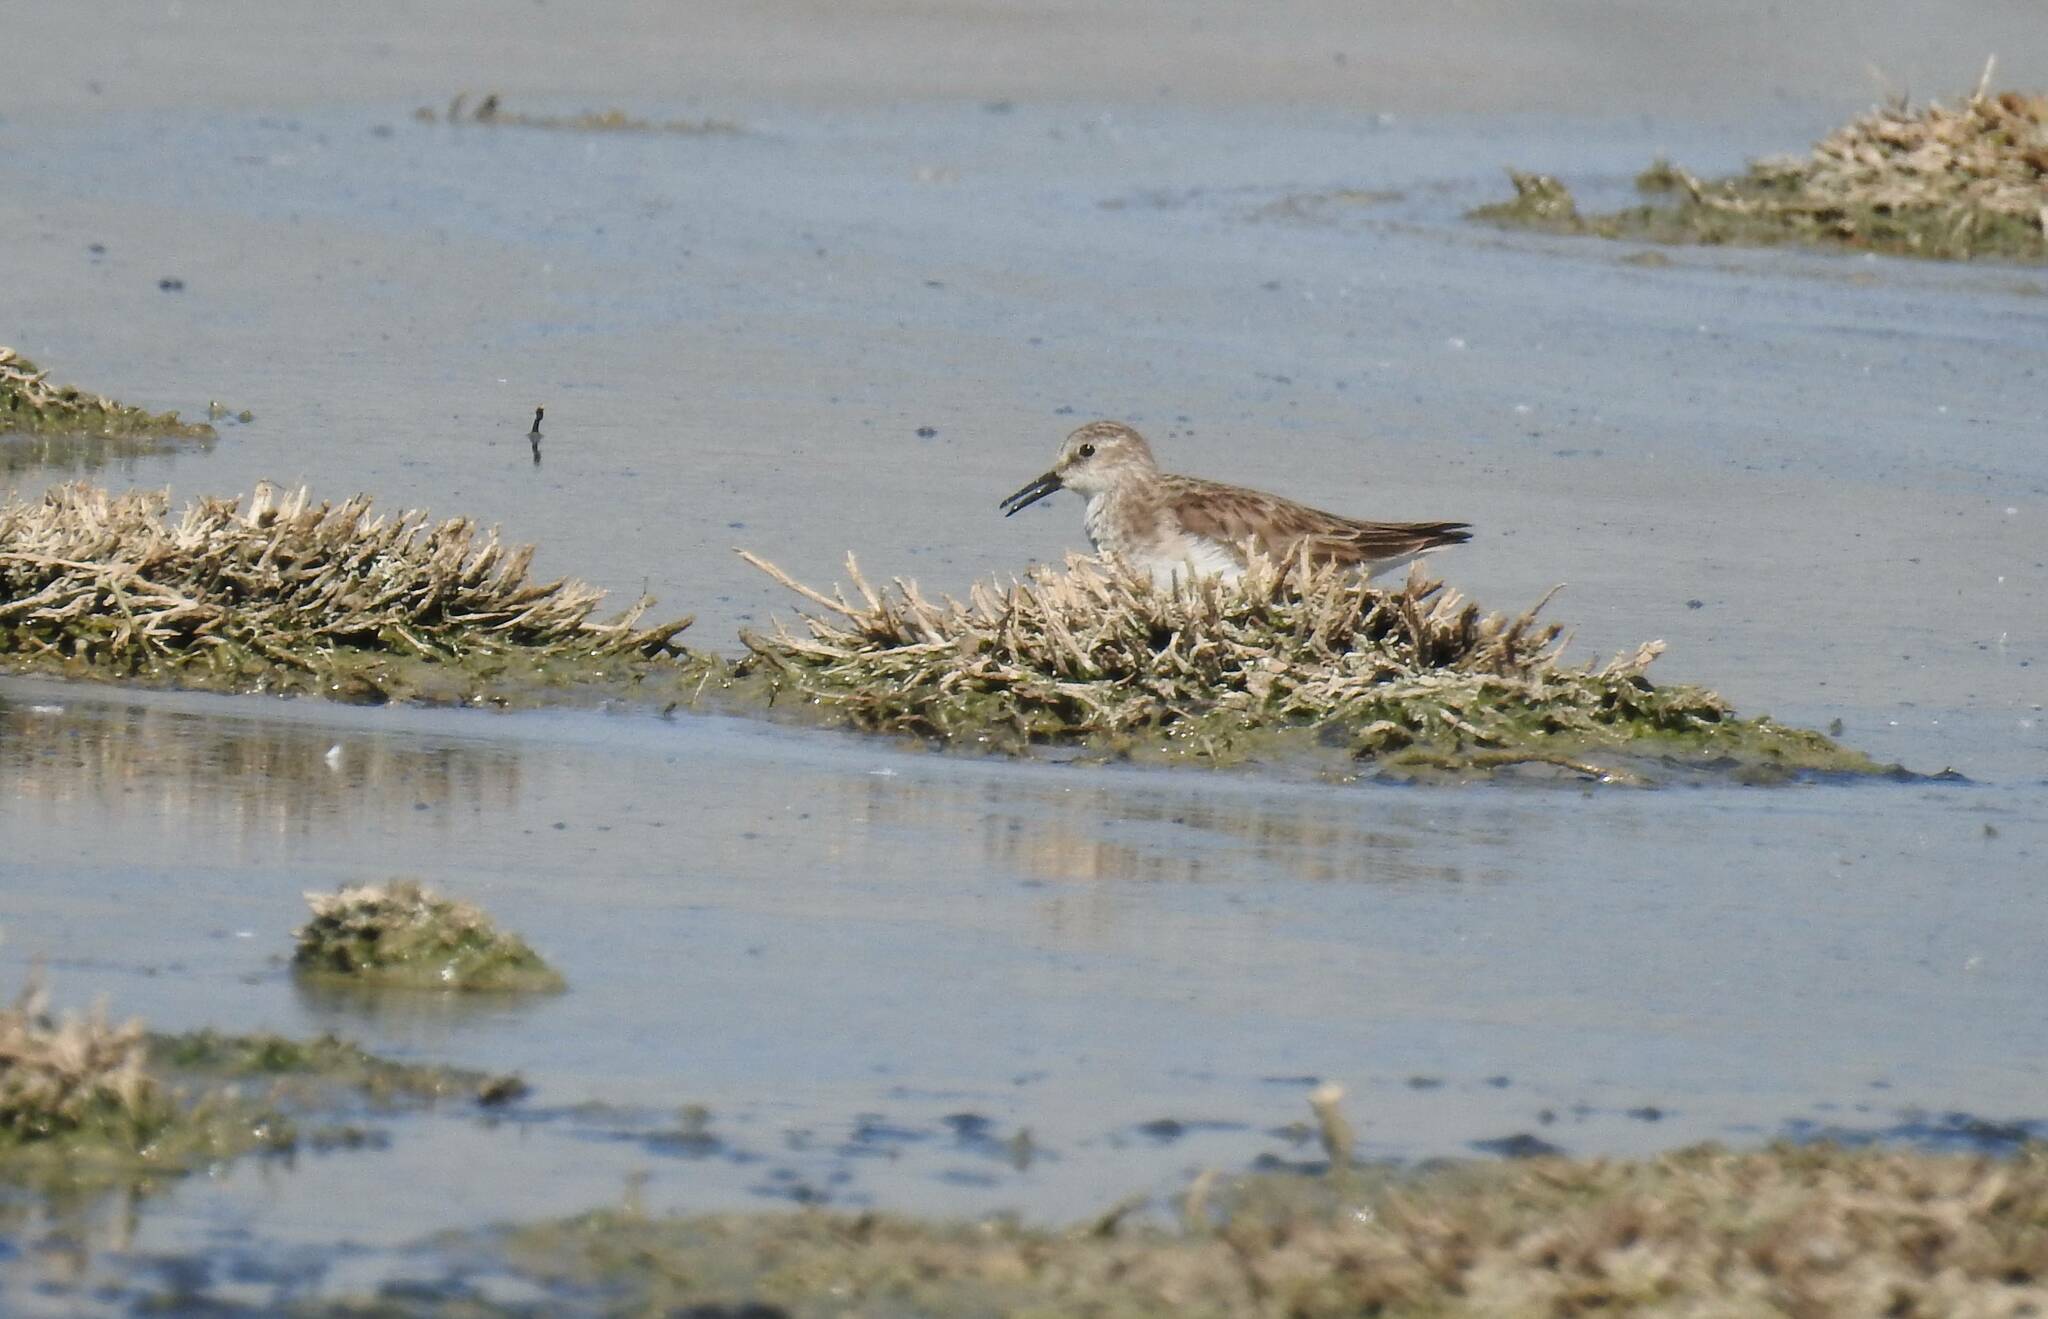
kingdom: Animalia
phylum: Chordata
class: Aves
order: Charadriiformes
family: Scolopacidae
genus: Calidris
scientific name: Calidris minuta
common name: Little stint
